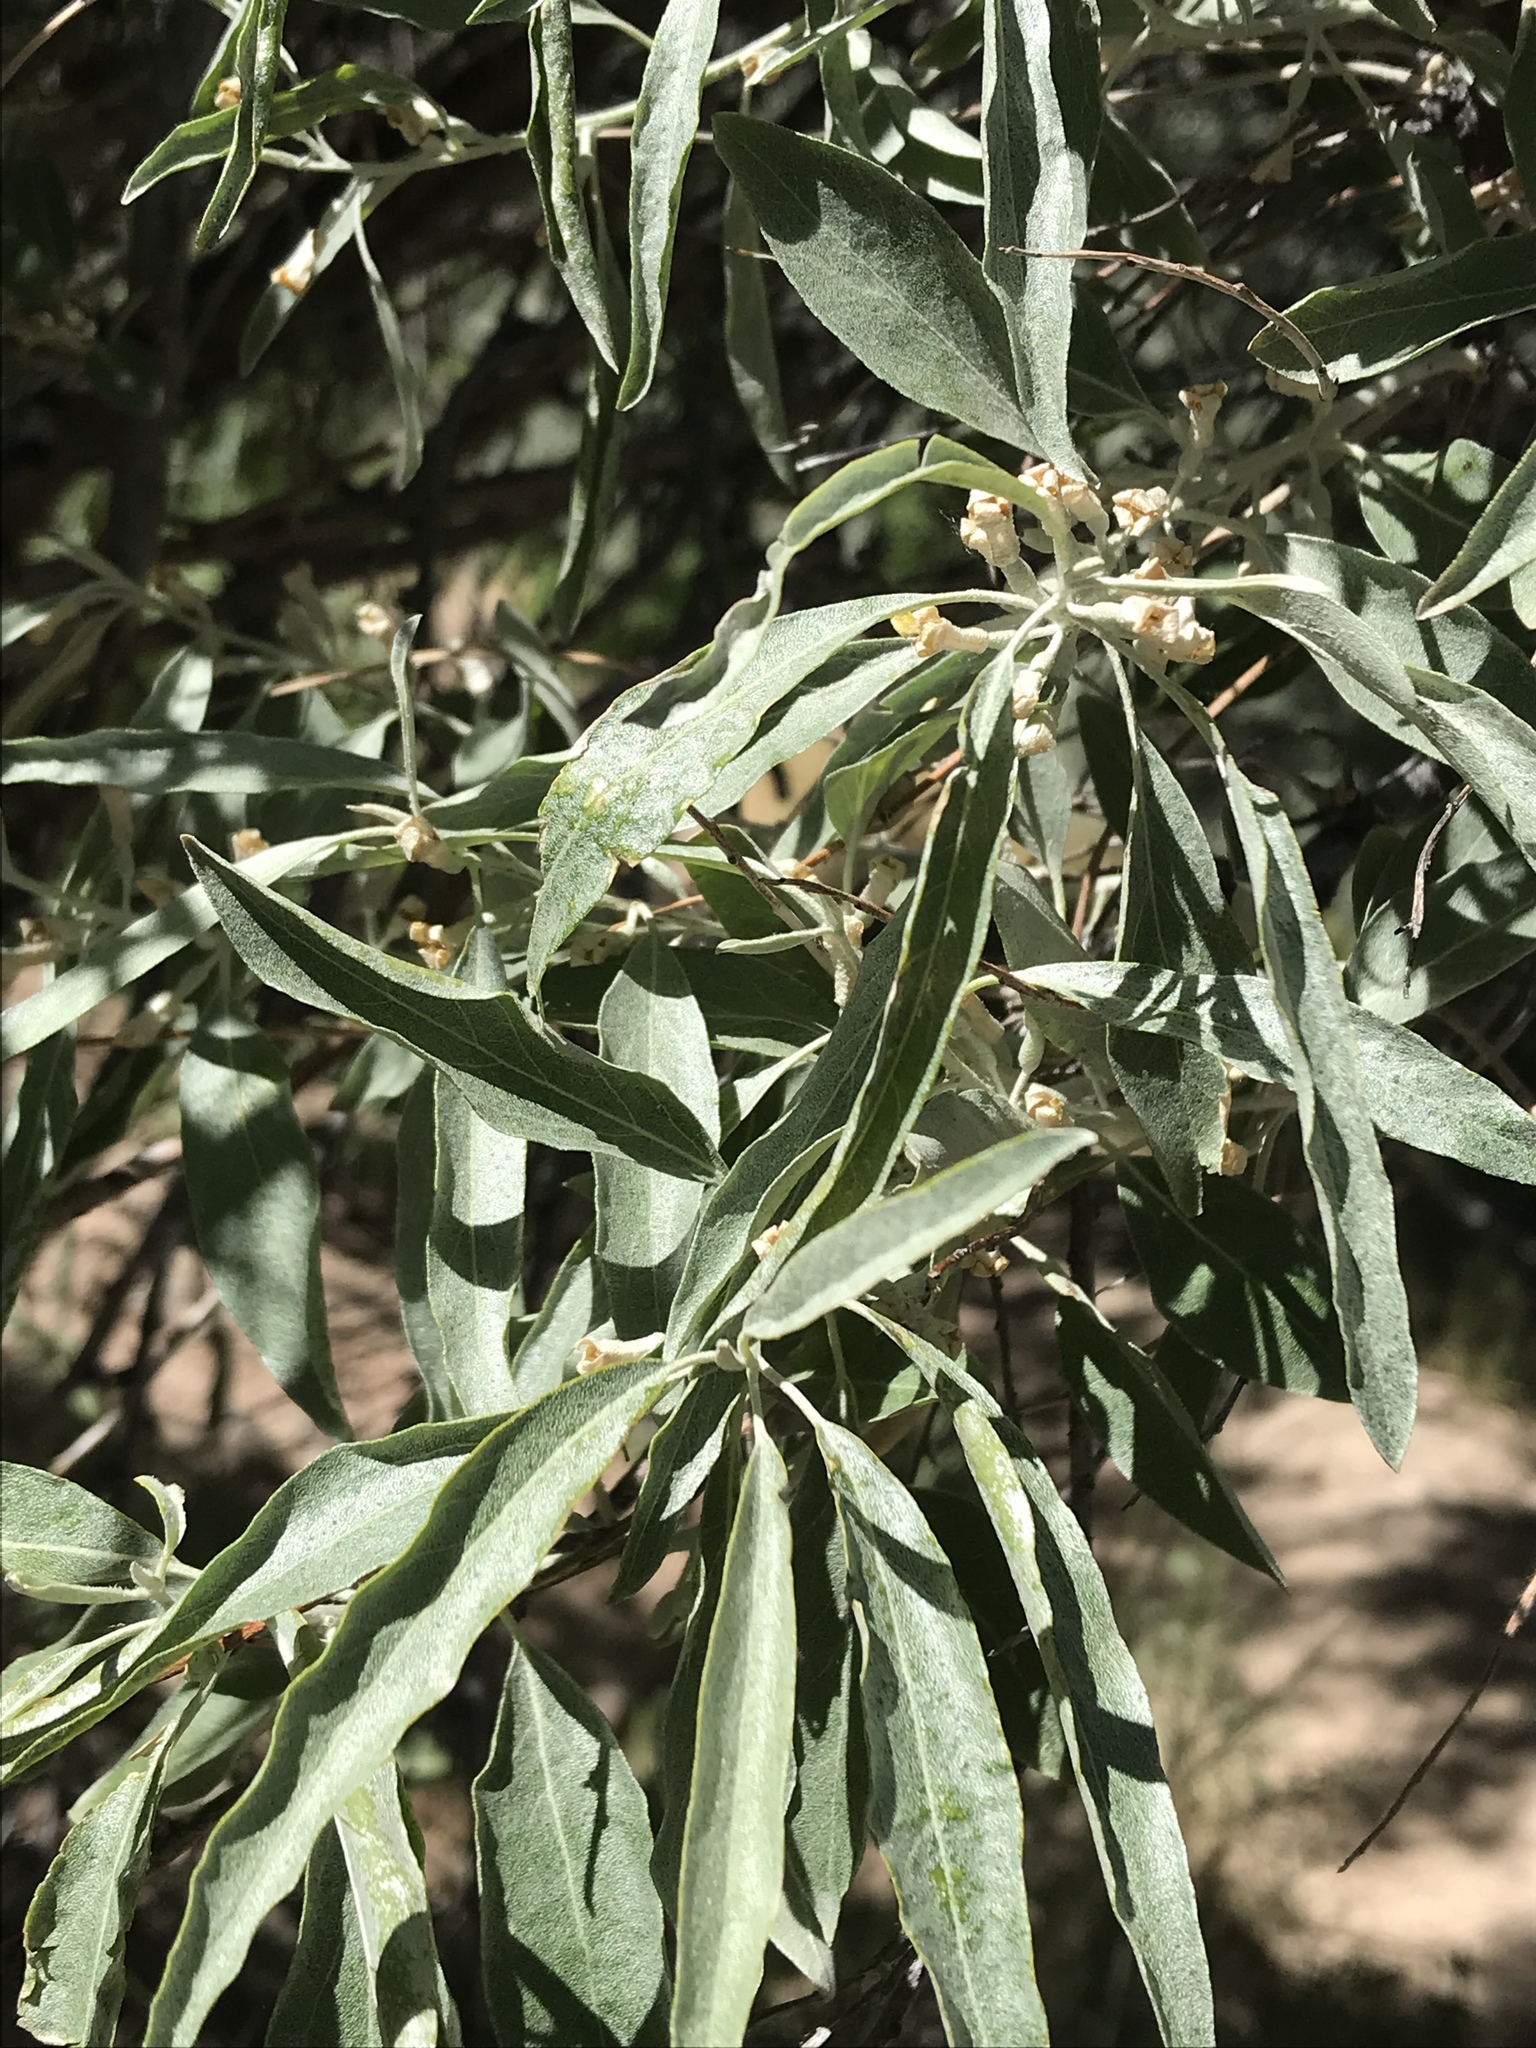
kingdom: Plantae
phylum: Tracheophyta
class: Magnoliopsida
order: Rosales
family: Elaeagnaceae
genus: Elaeagnus
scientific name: Elaeagnus angustifolia
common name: Russian olive
